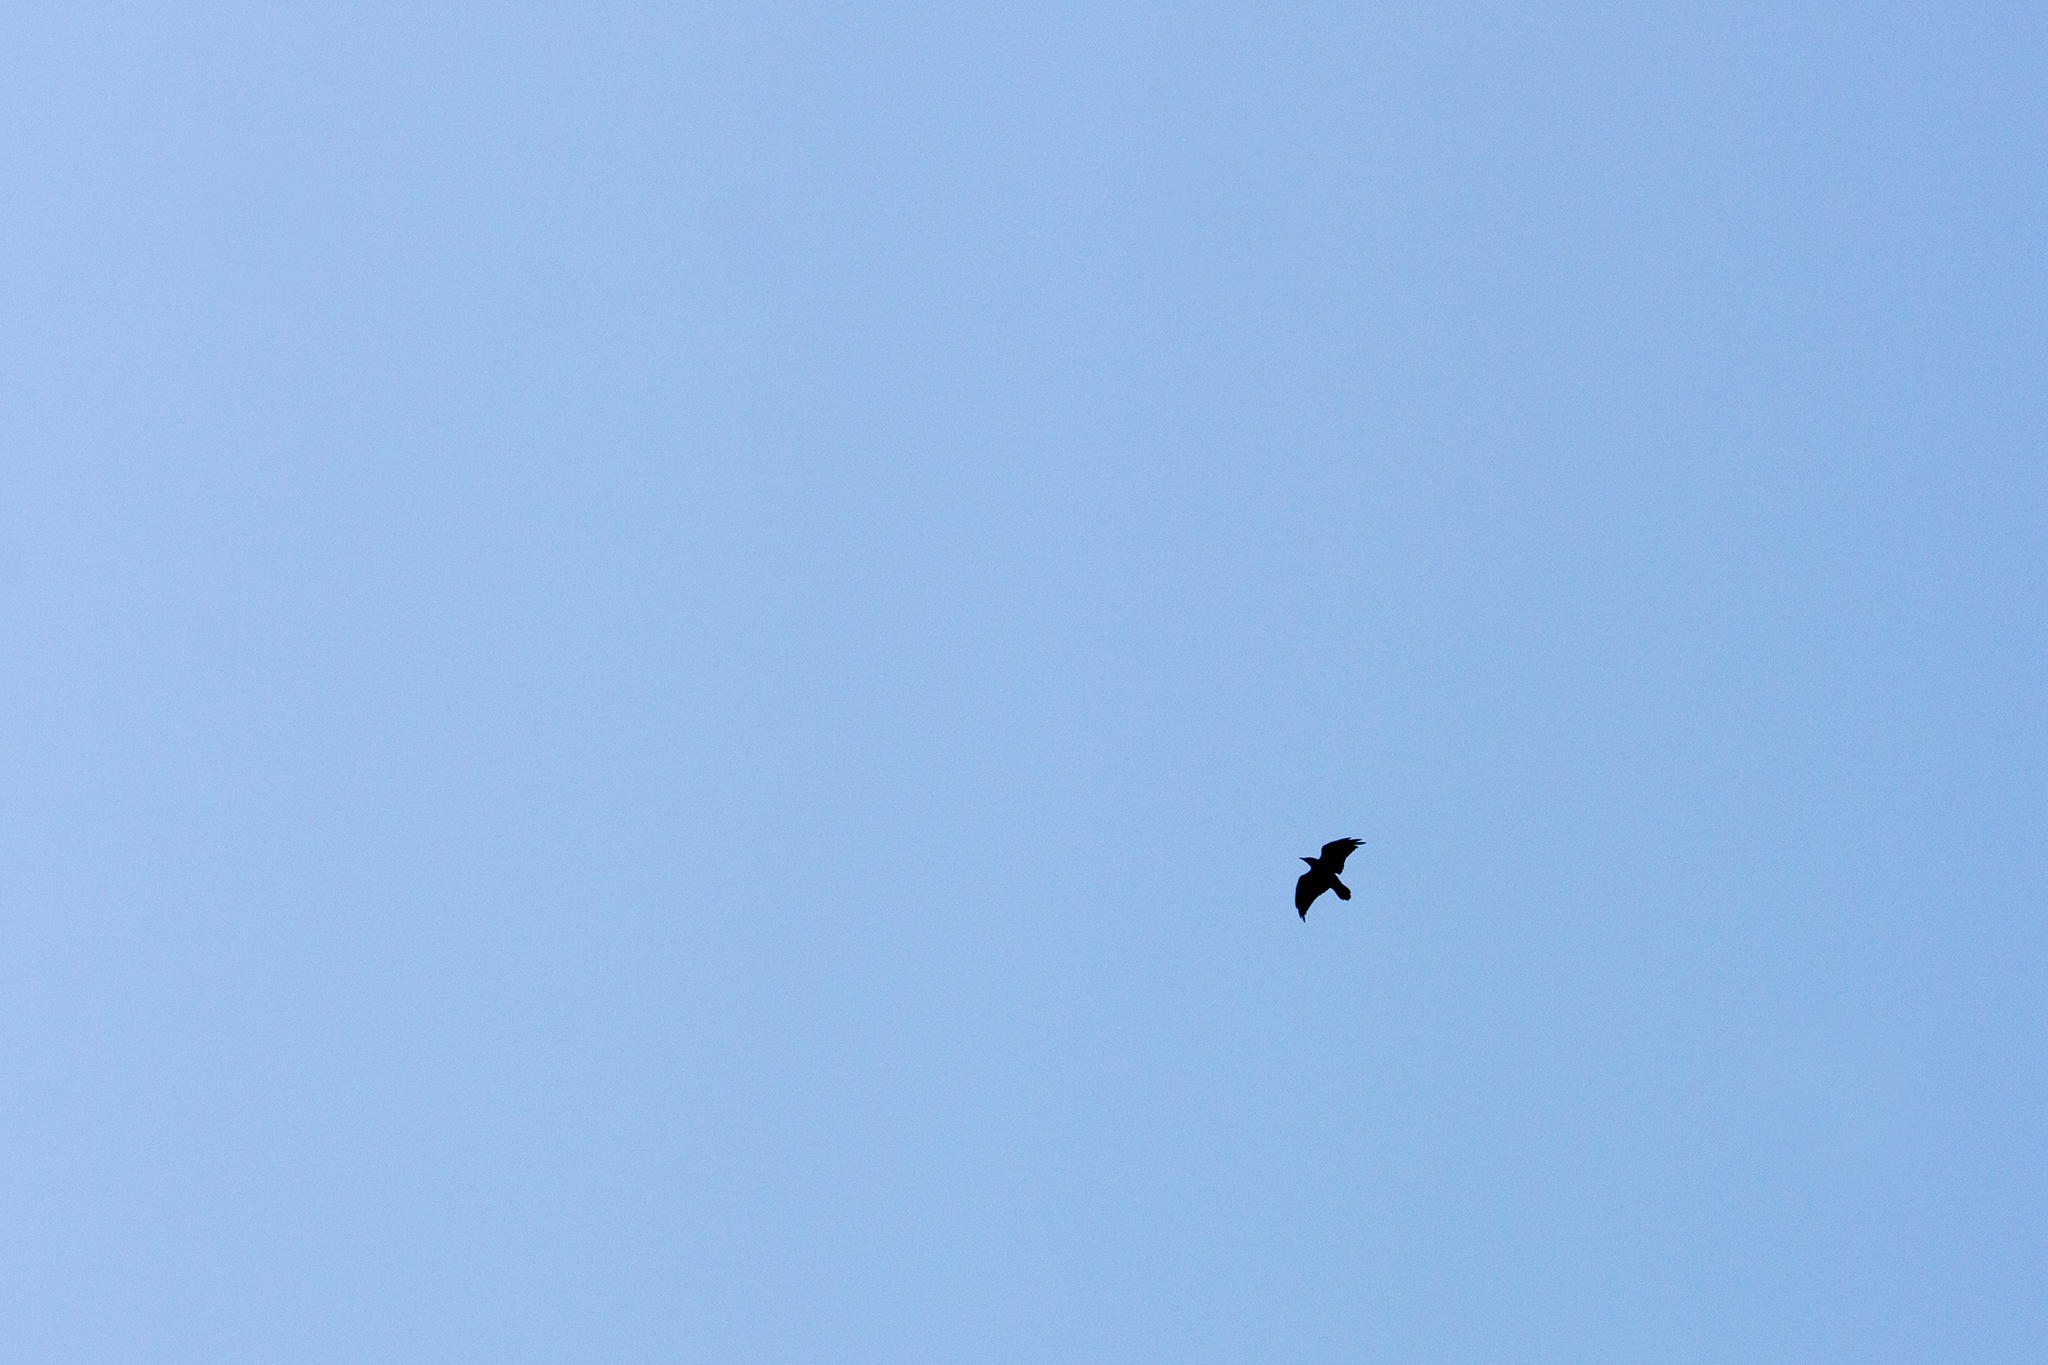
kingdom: Animalia
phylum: Chordata
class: Aves
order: Passeriformes
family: Corvidae
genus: Corvus
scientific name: Corvus corax
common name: Common raven
